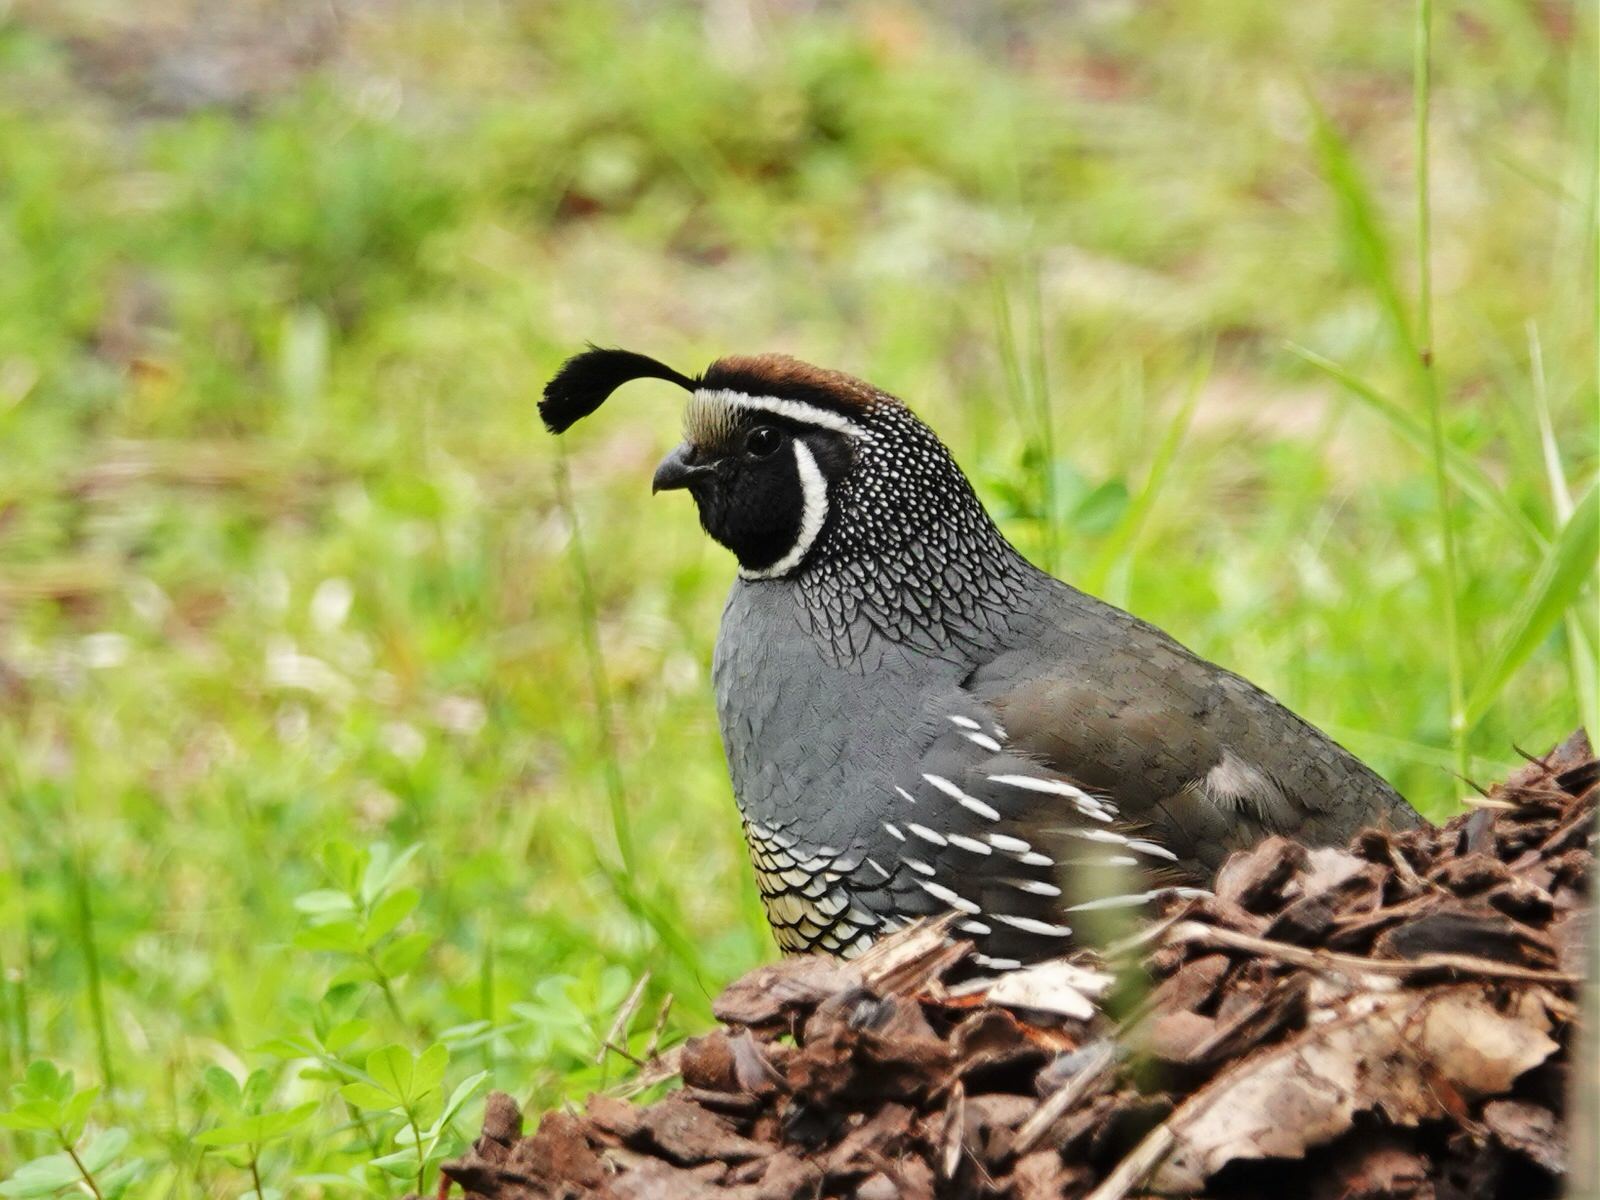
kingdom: Animalia
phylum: Chordata
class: Aves
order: Galliformes
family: Odontophoridae
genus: Callipepla
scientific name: Callipepla californica
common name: California quail
